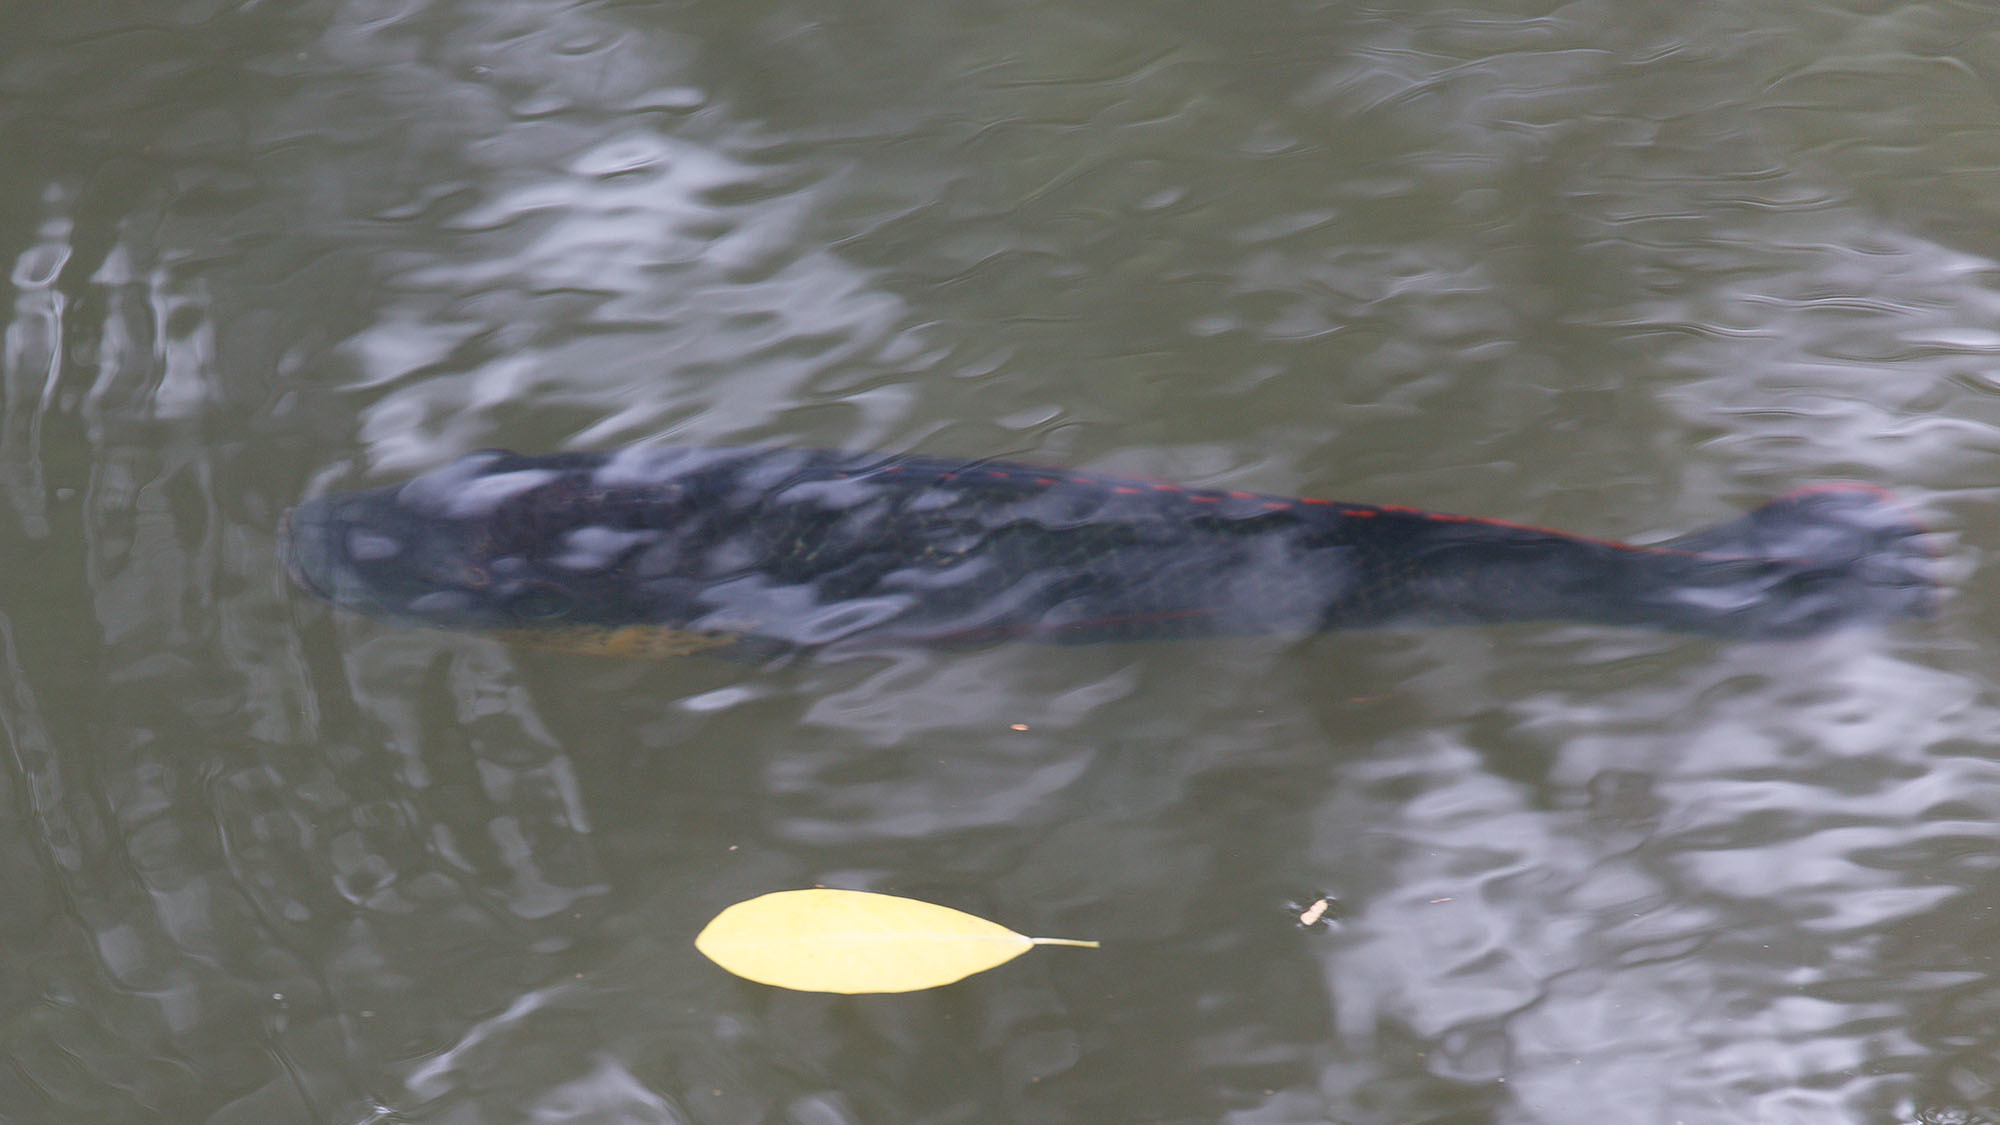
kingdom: Animalia
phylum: Chordata
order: Perciformes
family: Cichlidae
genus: Oreochromis
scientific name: Oreochromis mossambicus
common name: Mozambique tilapia
